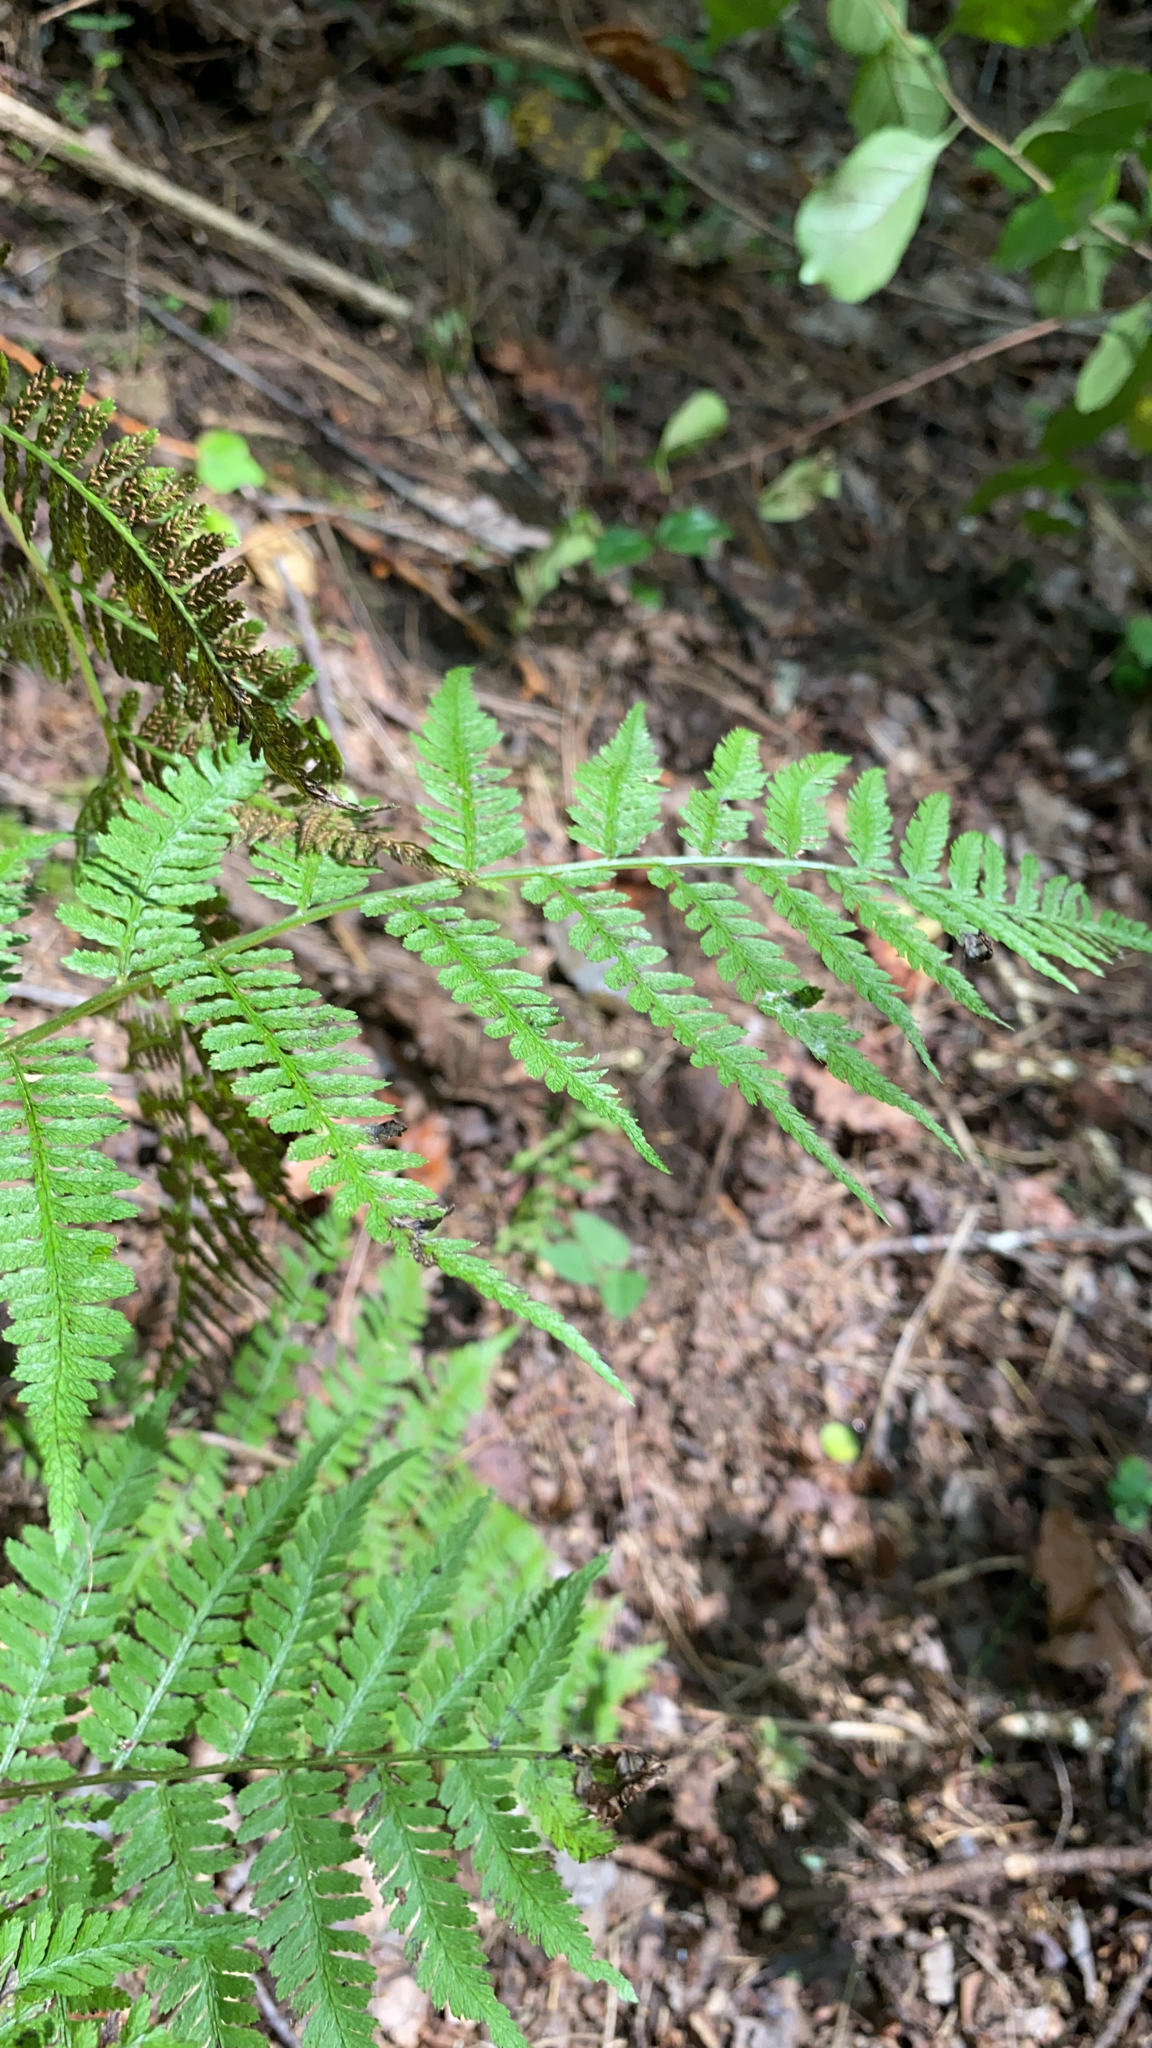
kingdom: Plantae
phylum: Tracheophyta
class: Polypodiopsida
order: Polypodiales
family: Athyriaceae
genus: Athyrium
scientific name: Athyrium asplenioides
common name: Southern lady fern
